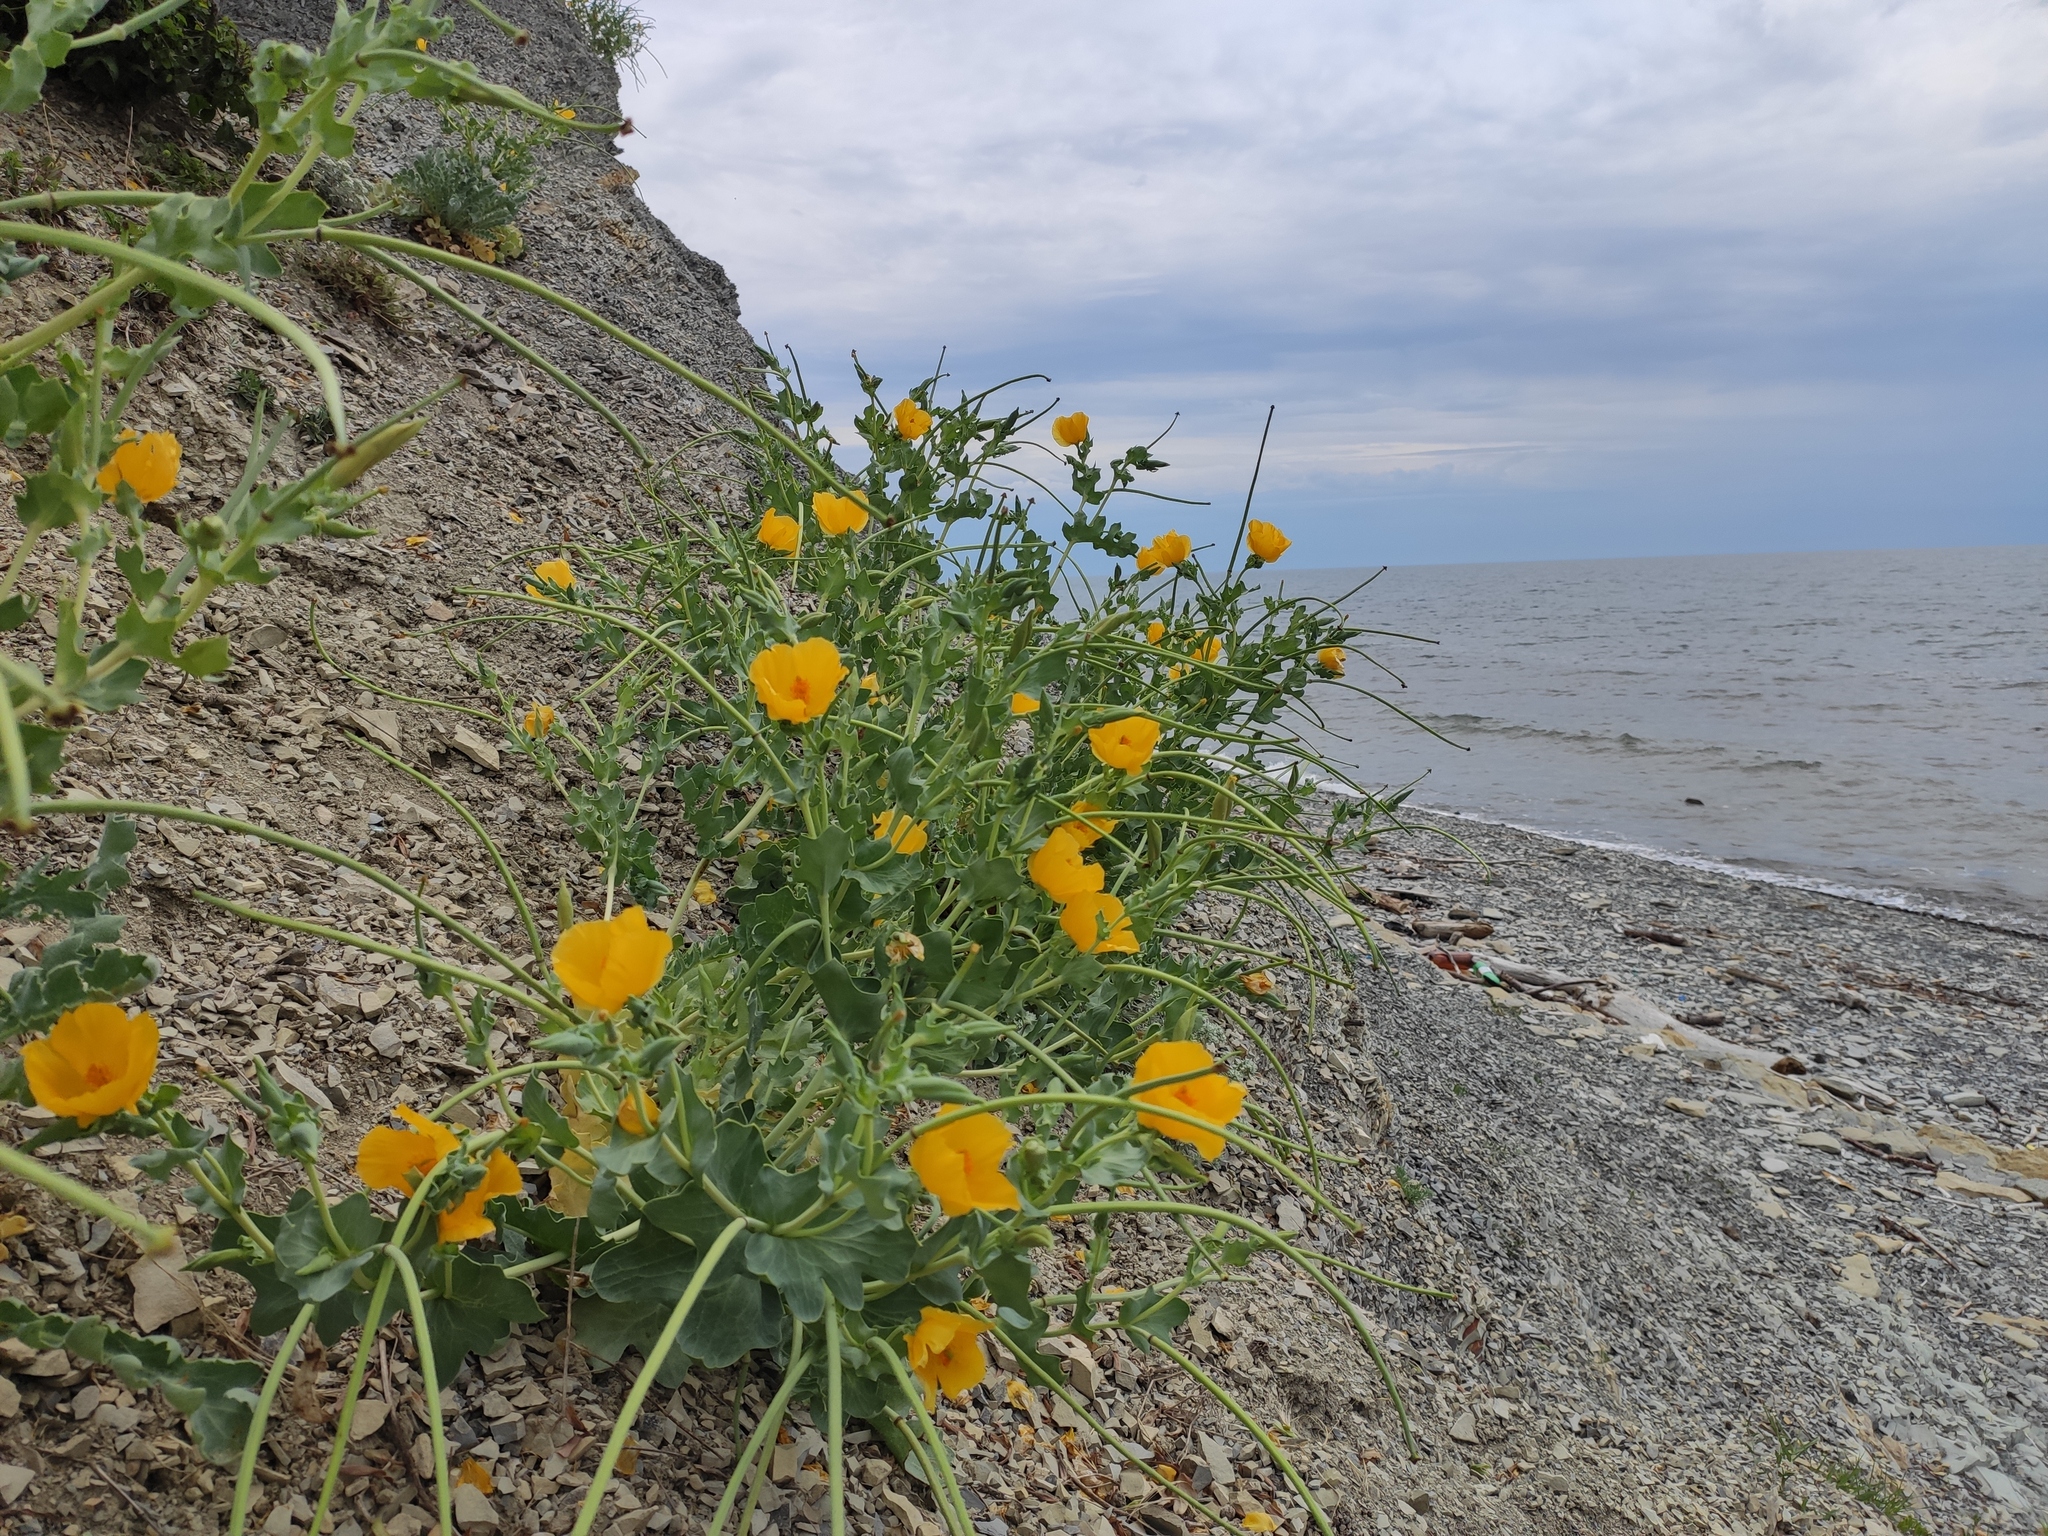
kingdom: Plantae
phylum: Tracheophyta
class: Magnoliopsida
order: Ranunculales
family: Papaveraceae
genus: Glaucium
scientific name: Glaucium flavum
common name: Yellow horned-poppy
